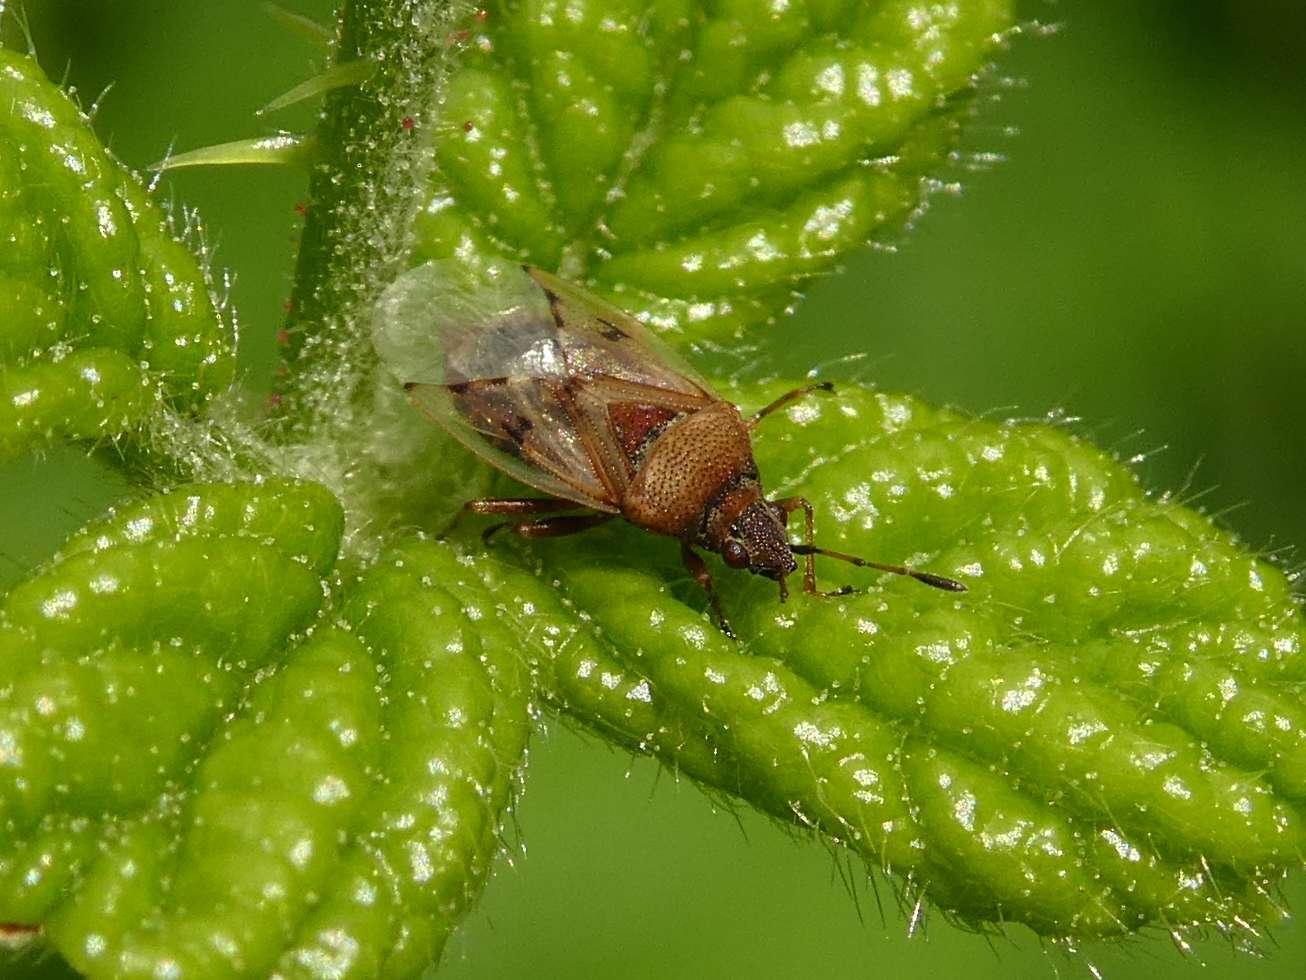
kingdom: Animalia
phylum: Arthropoda
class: Insecta
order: Hemiptera
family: Lygaeidae
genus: Kleidocerys
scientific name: Kleidocerys resedae
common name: Birch catkin bug
